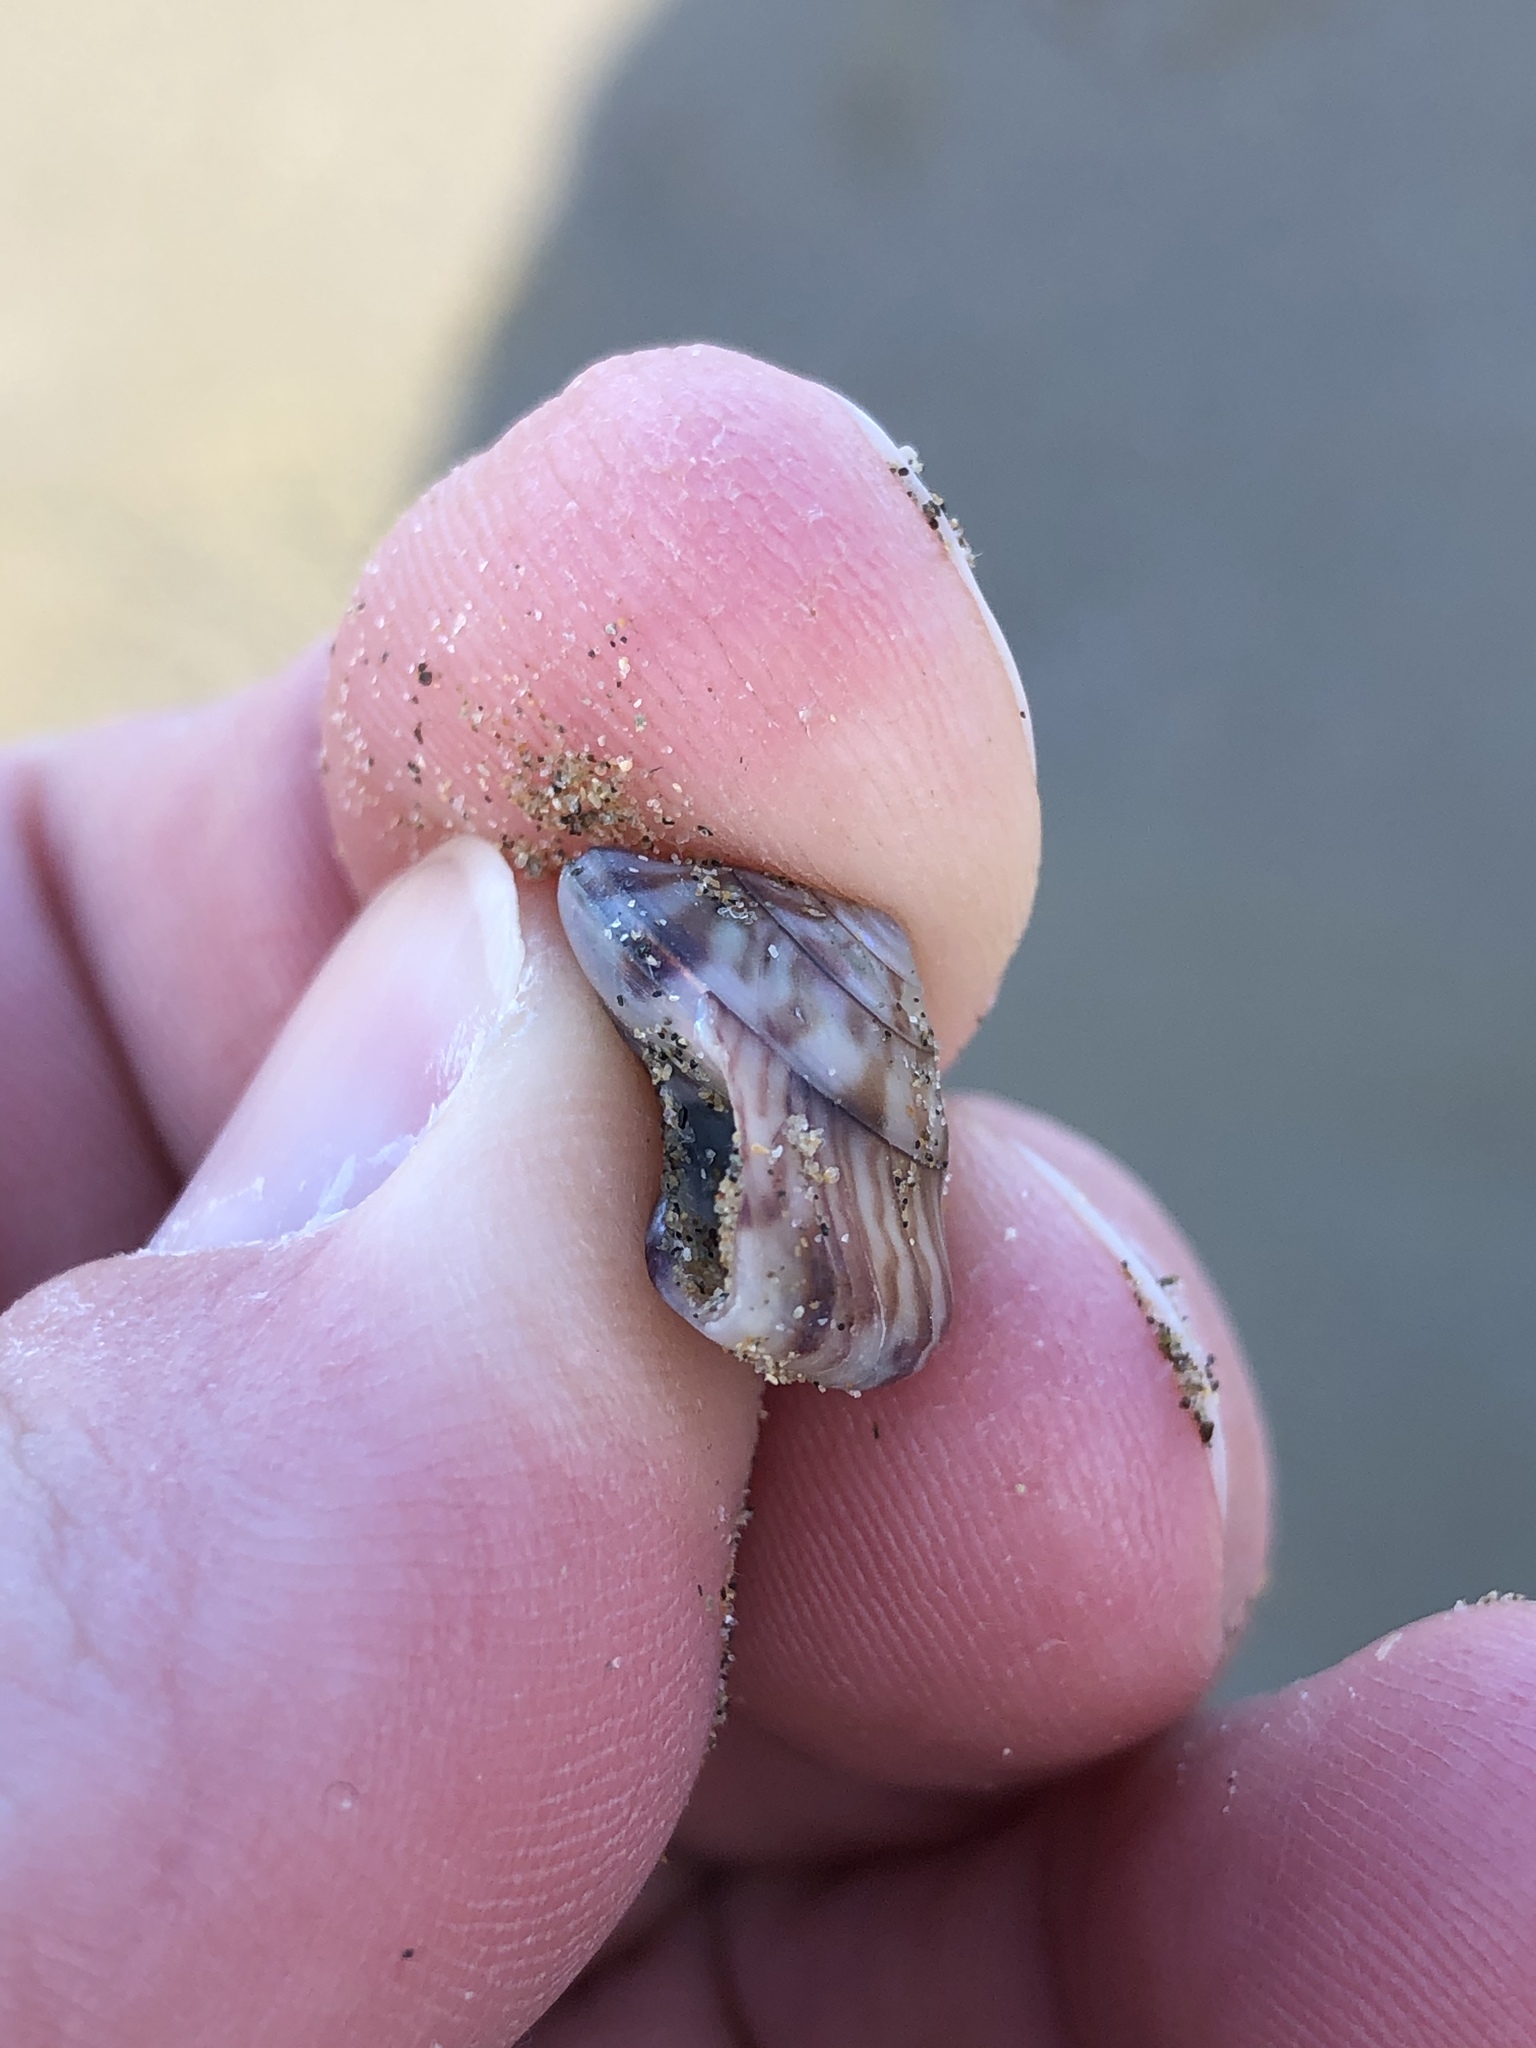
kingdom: Animalia
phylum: Mollusca
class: Gastropoda
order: Trochida
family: Trochidae
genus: Zethalia
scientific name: Zethalia zelandica
